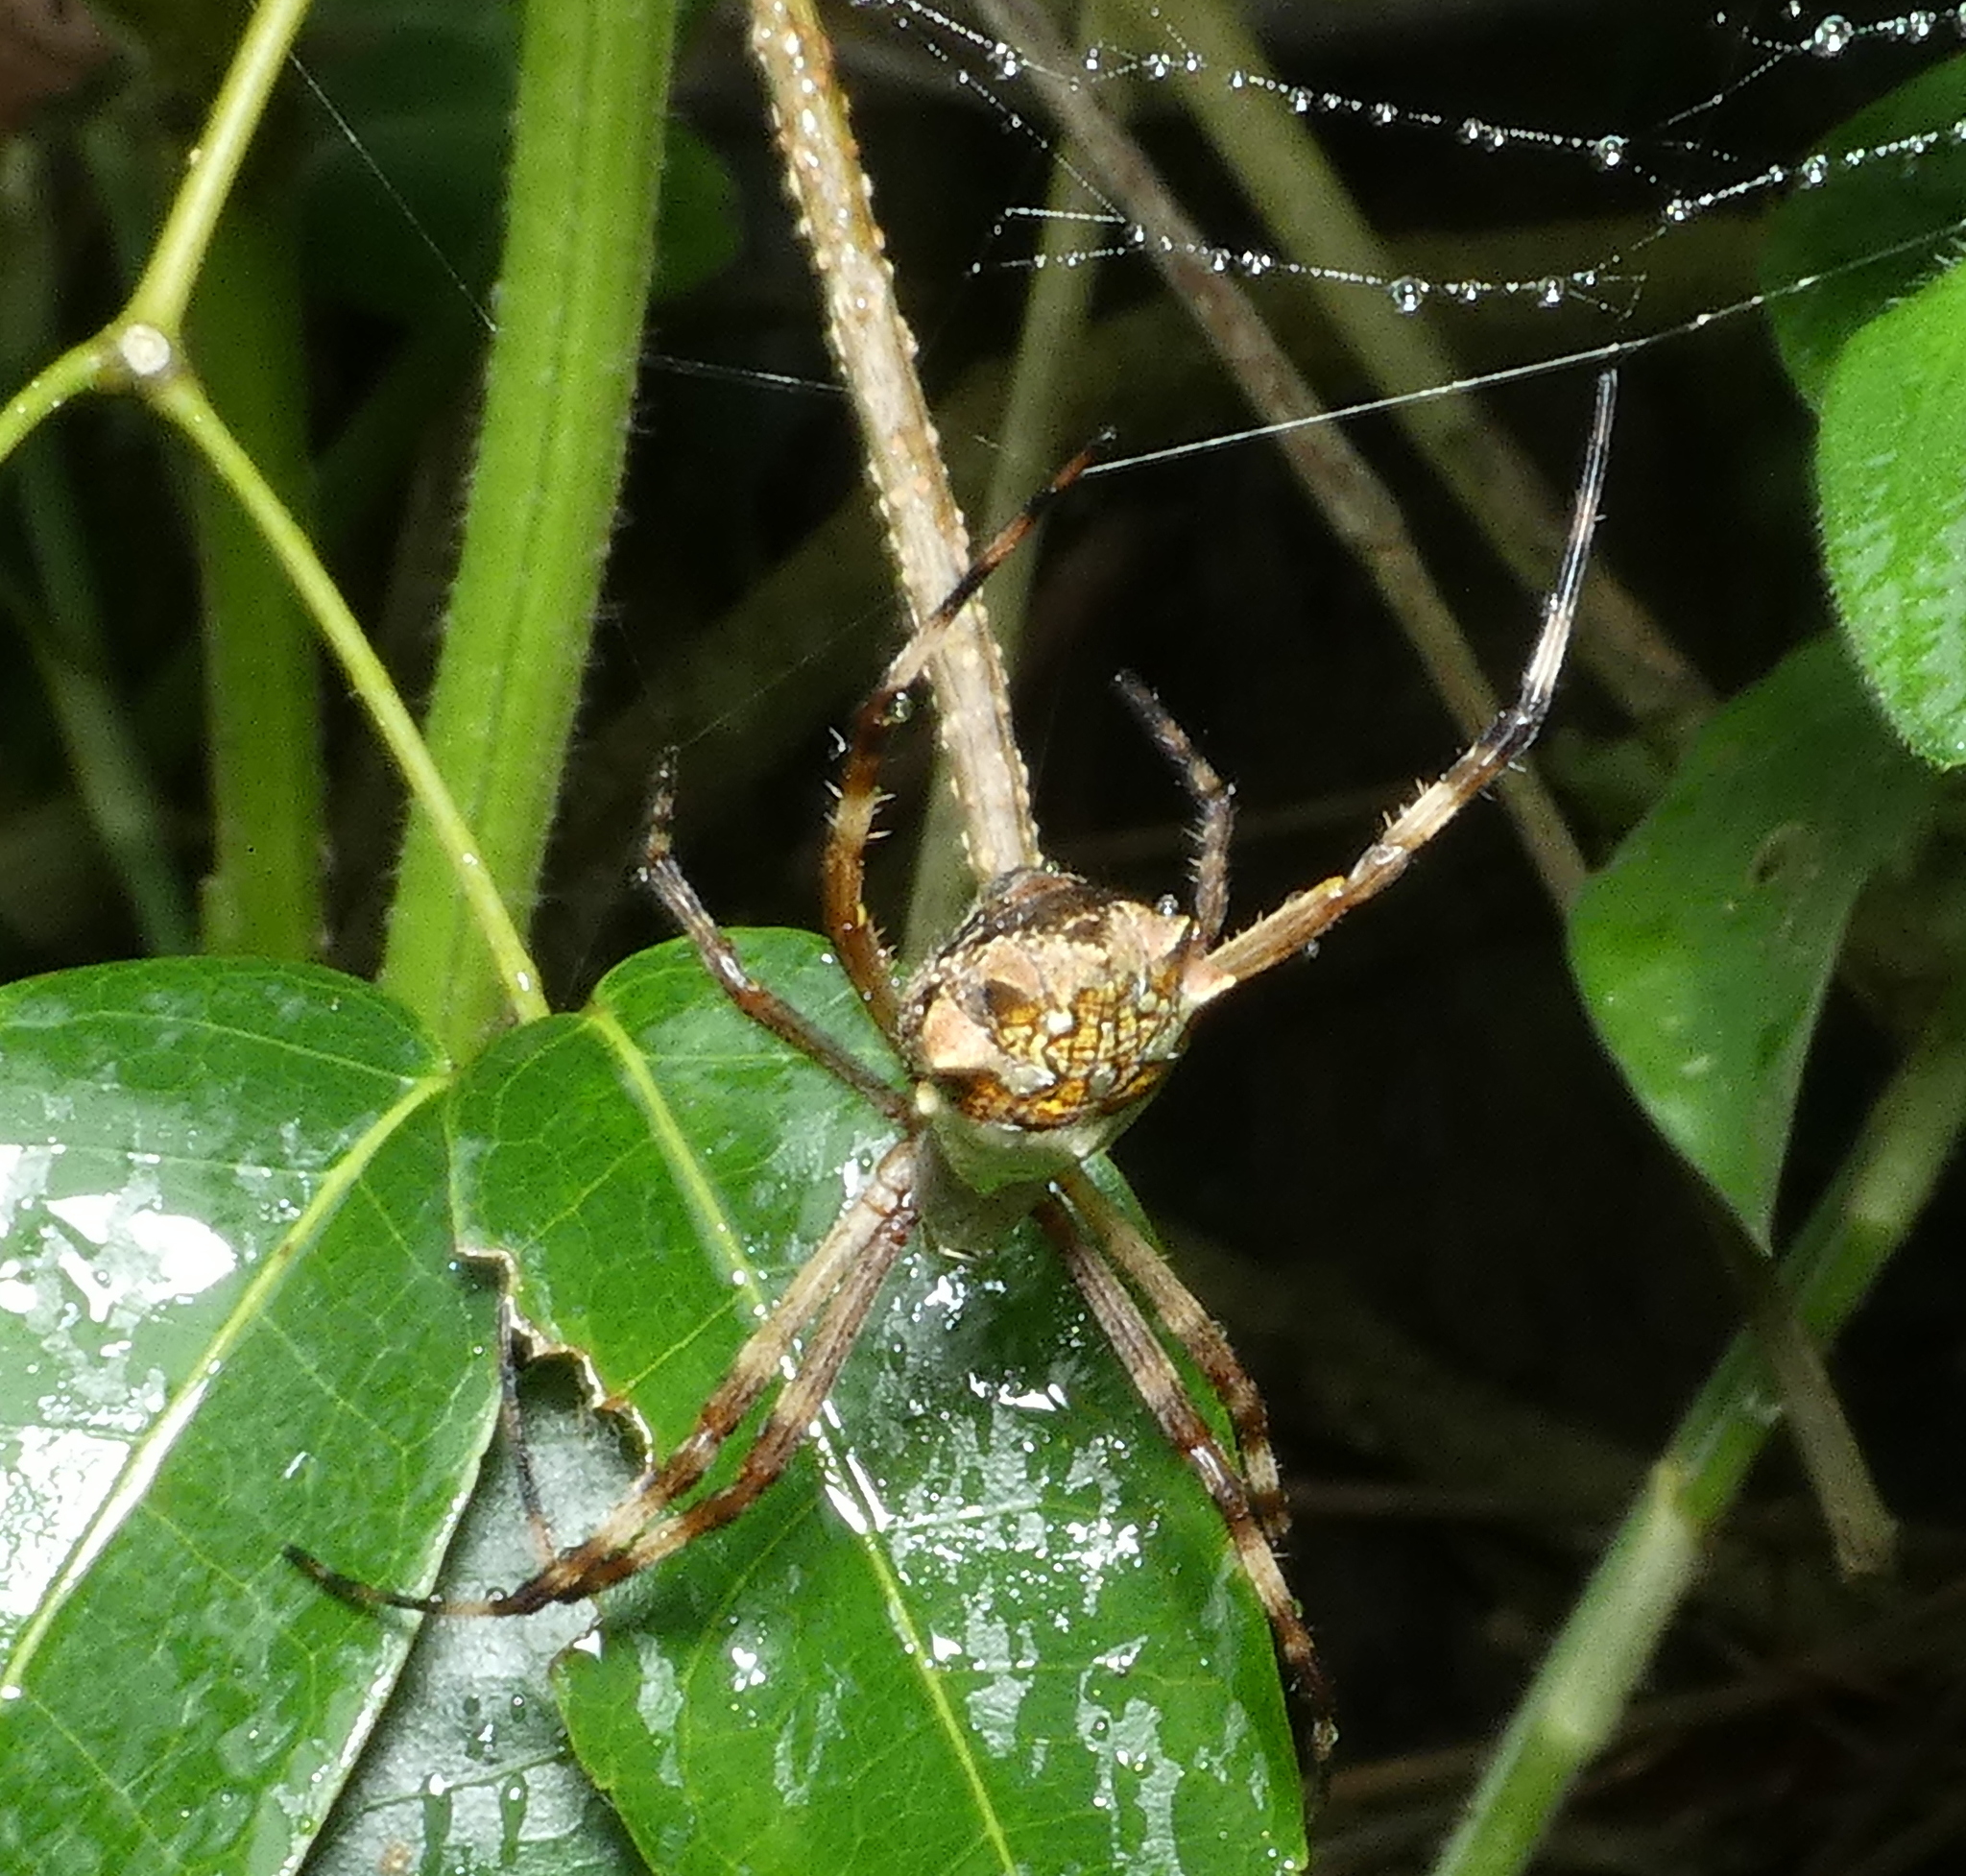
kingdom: Animalia
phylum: Arthropoda
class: Arachnida
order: Araneae
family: Araneidae
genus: Argiope
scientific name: Argiope argentata
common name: Orb weavers
